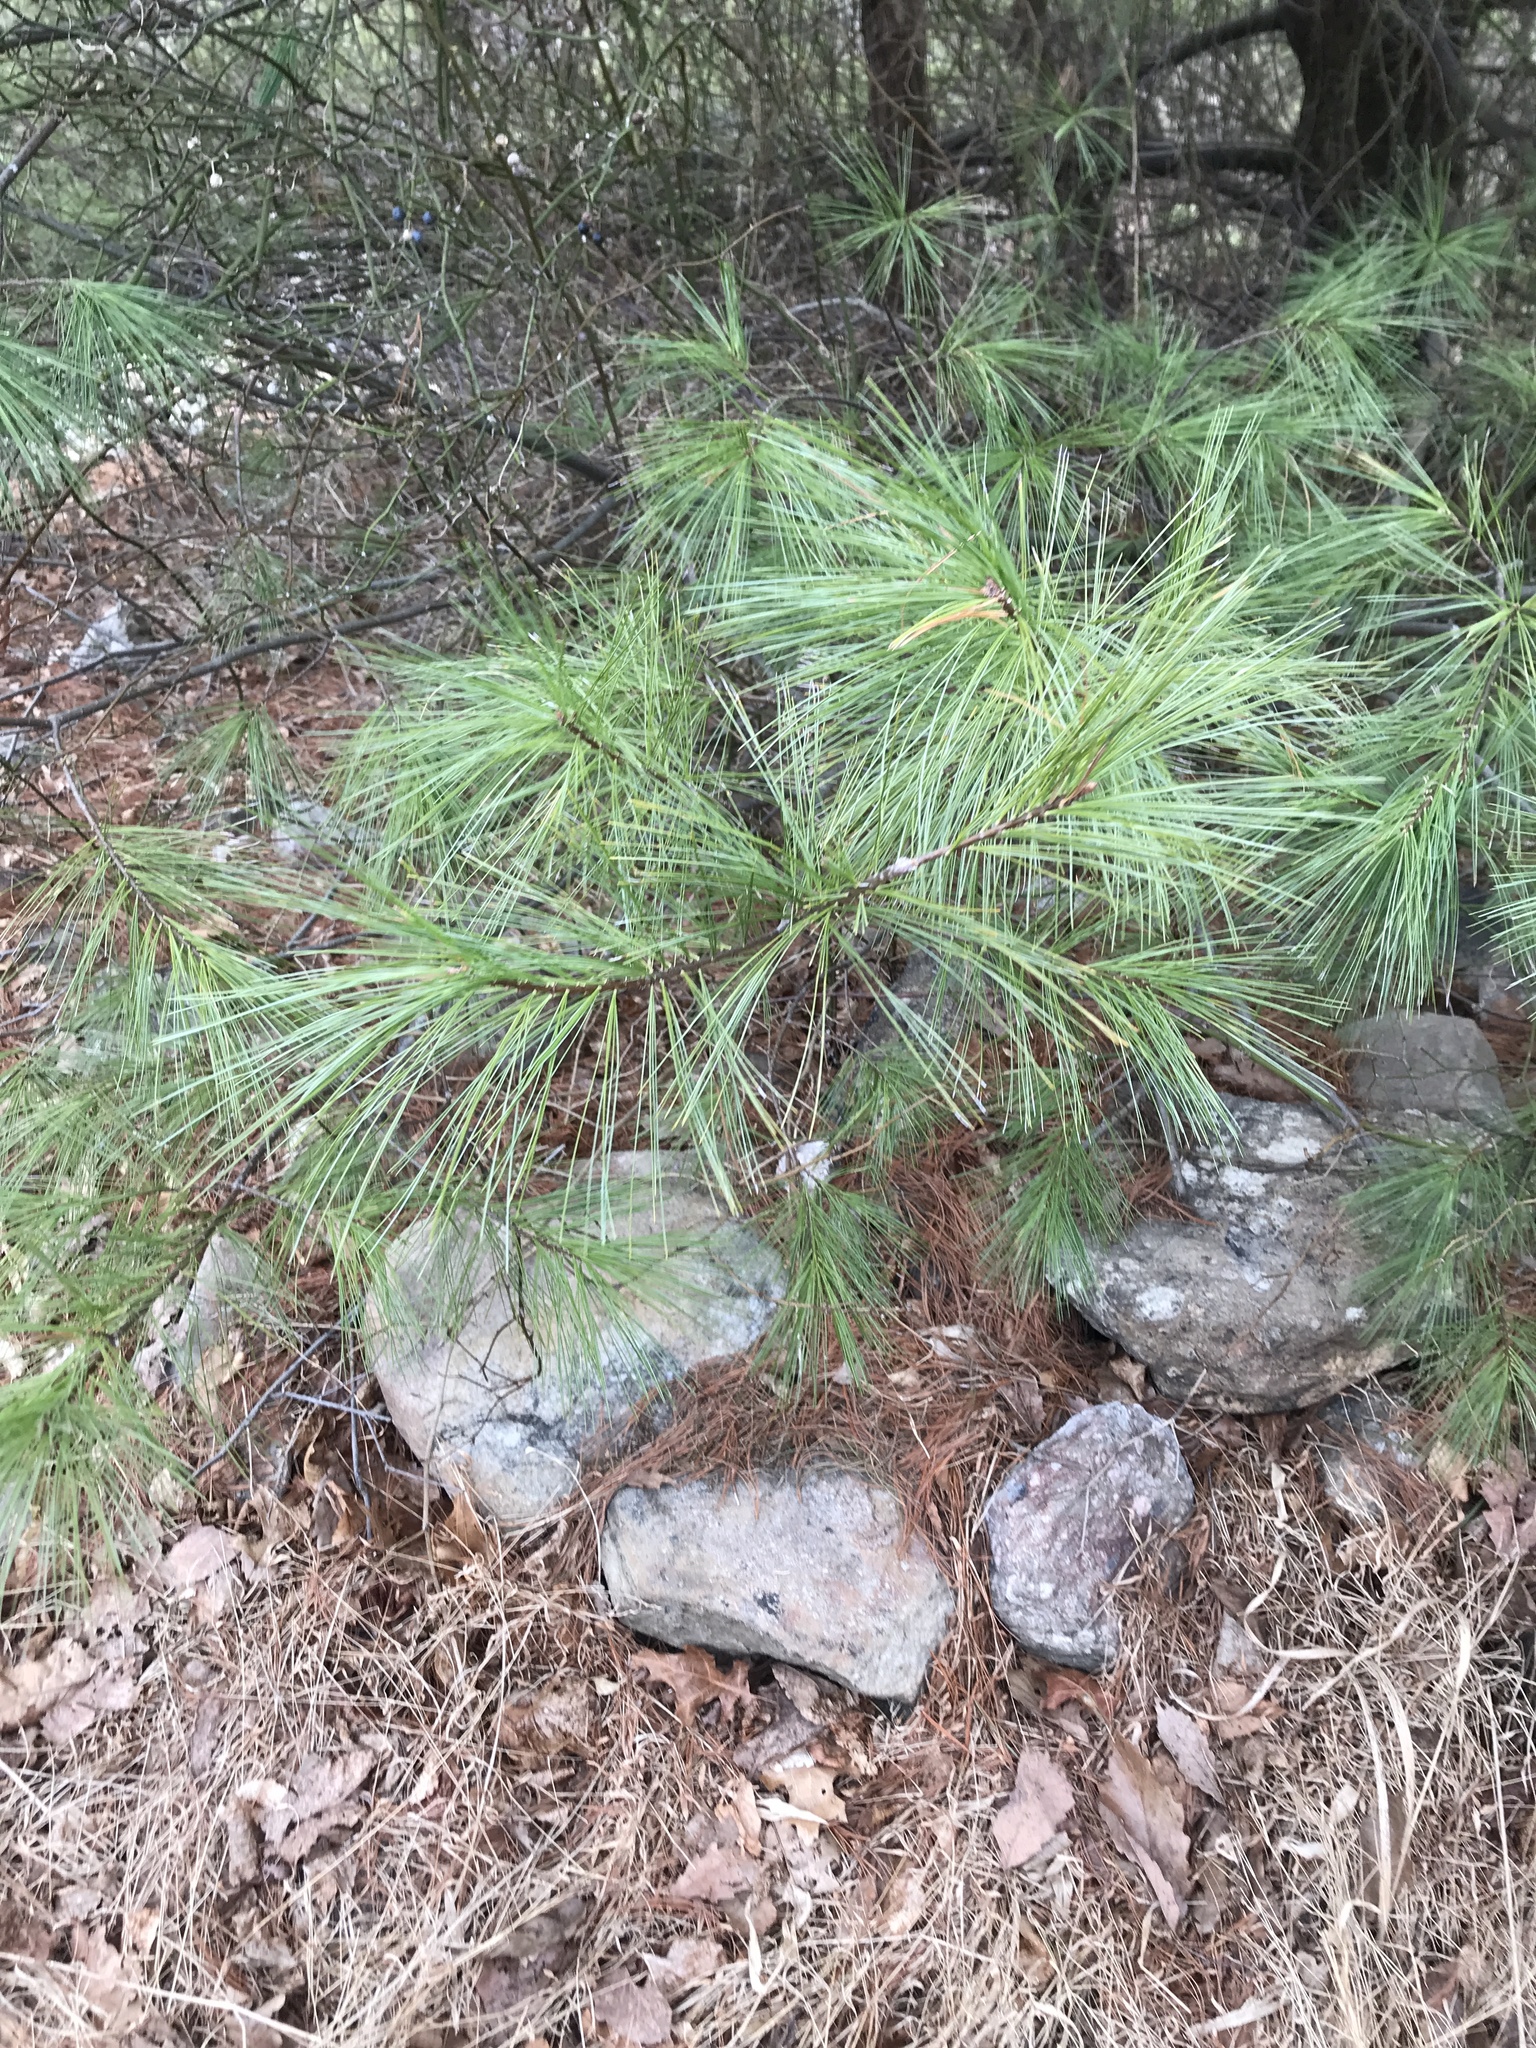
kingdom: Plantae
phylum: Tracheophyta
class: Pinopsida
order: Pinales
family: Pinaceae
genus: Pinus
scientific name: Pinus strobus
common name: Weymouth pine
